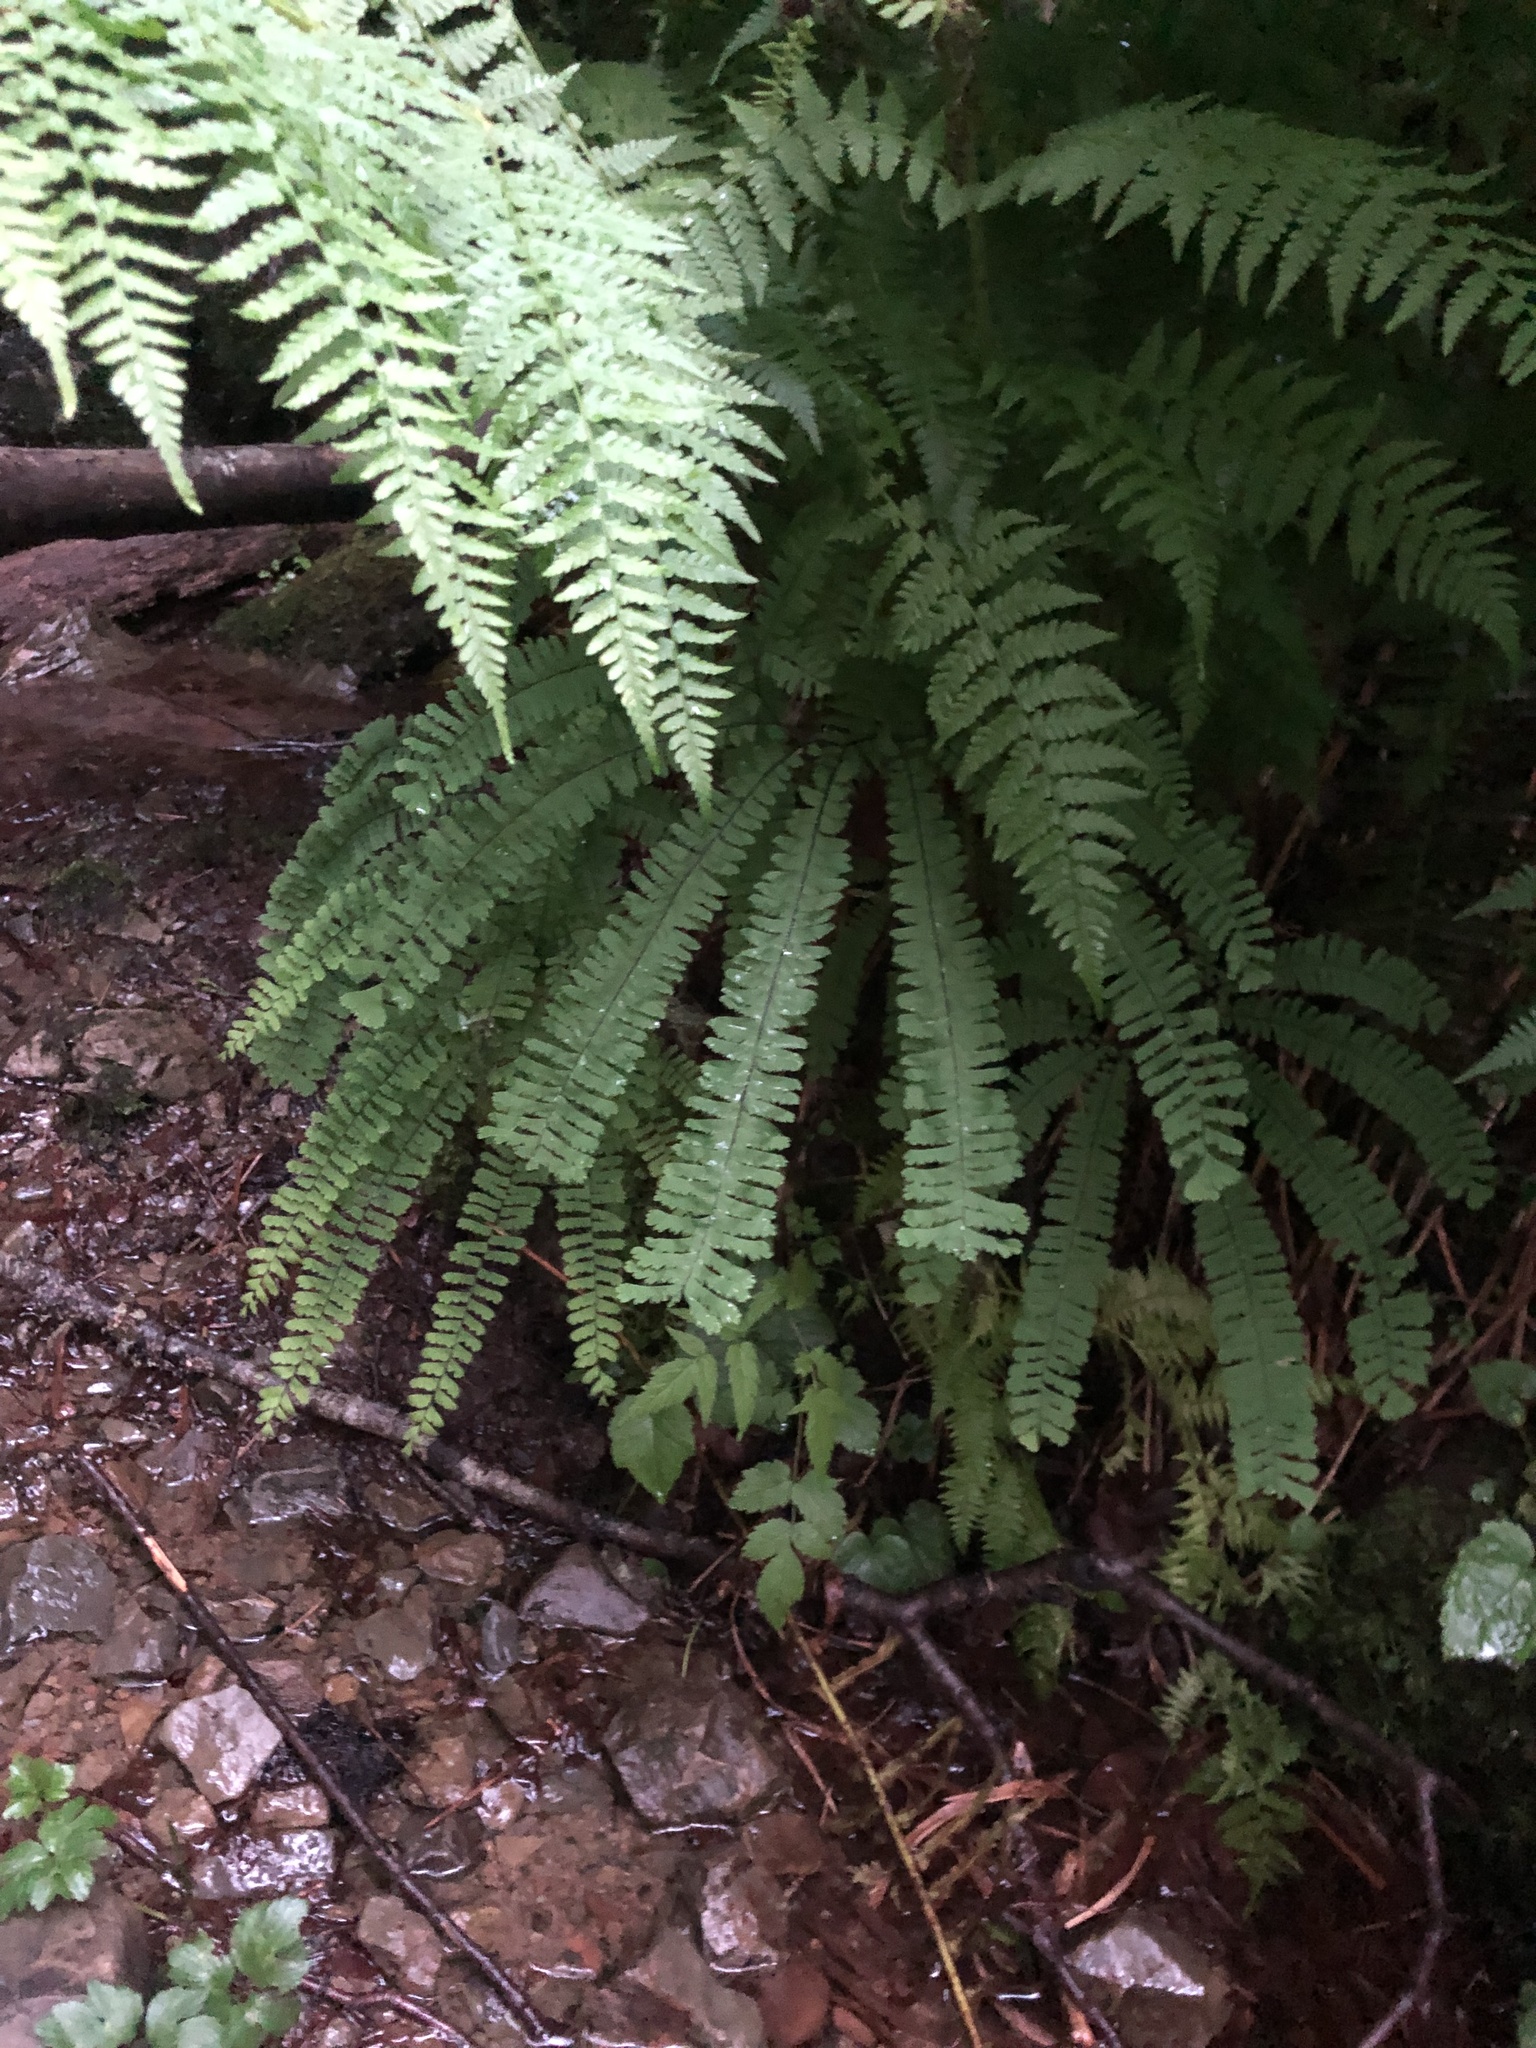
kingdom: Plantae
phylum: Tracheophyta
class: Polypodiopsida
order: Polypodiales
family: Pteridaceae
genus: Adiantum
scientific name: Adiantum aleuticum
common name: Aleutian maidenhair fern
